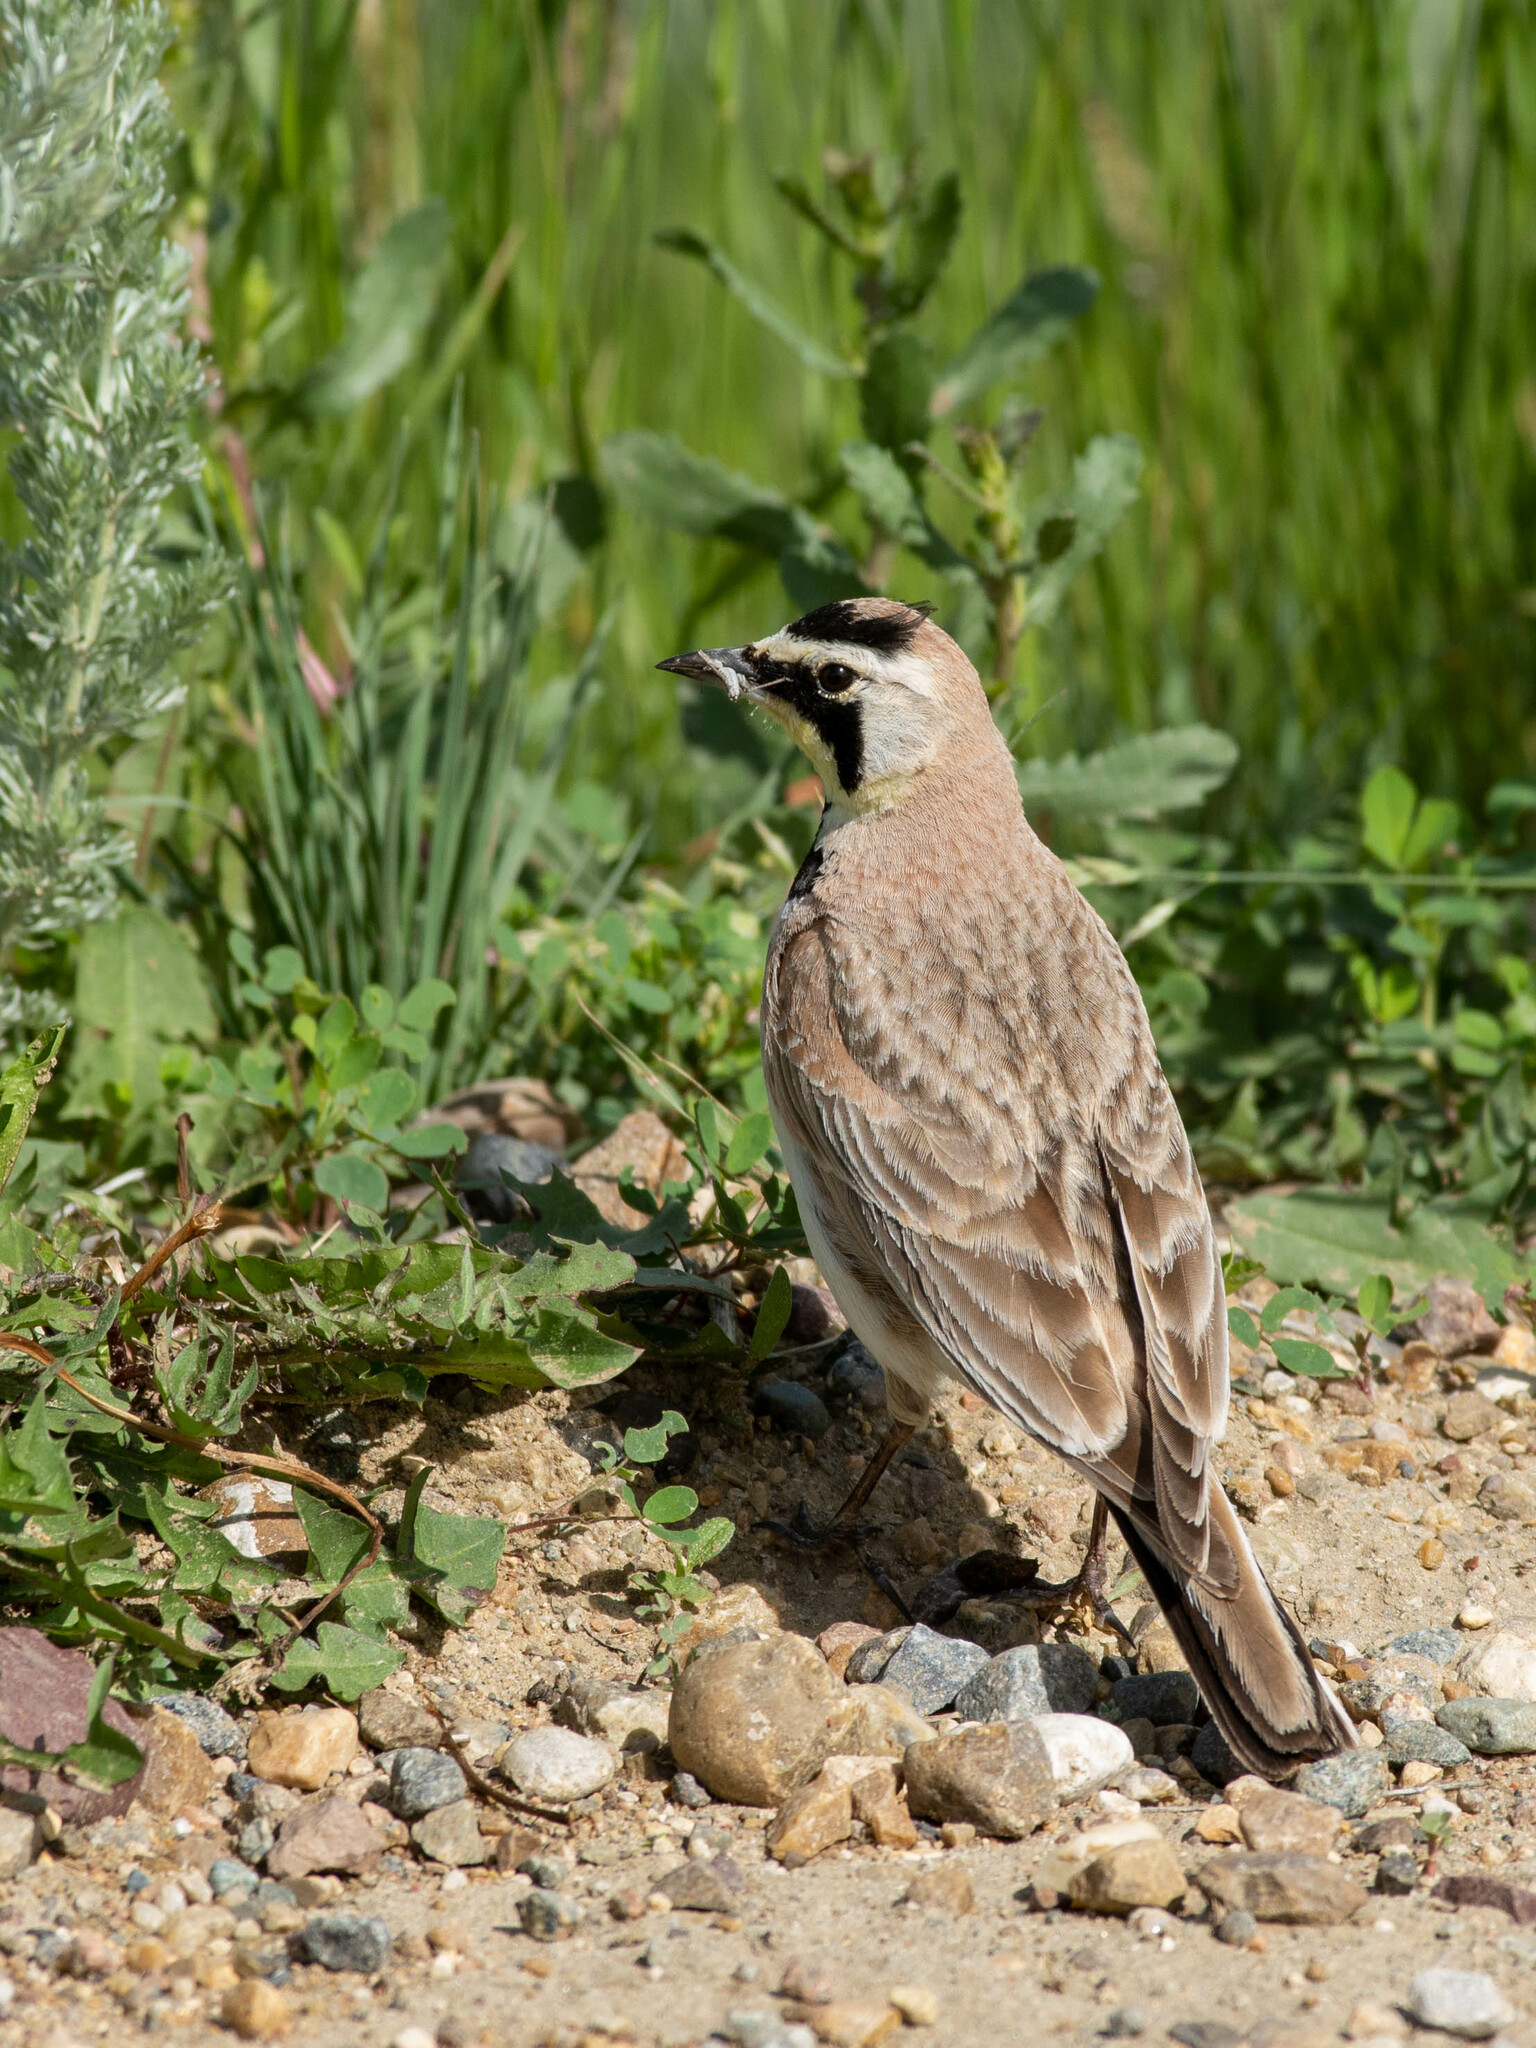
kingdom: Animalia
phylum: Chordata
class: Aves
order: Passeriformes
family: Alaudidae
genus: Eremophila
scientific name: Eremophila alpestris
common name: Horned lark
